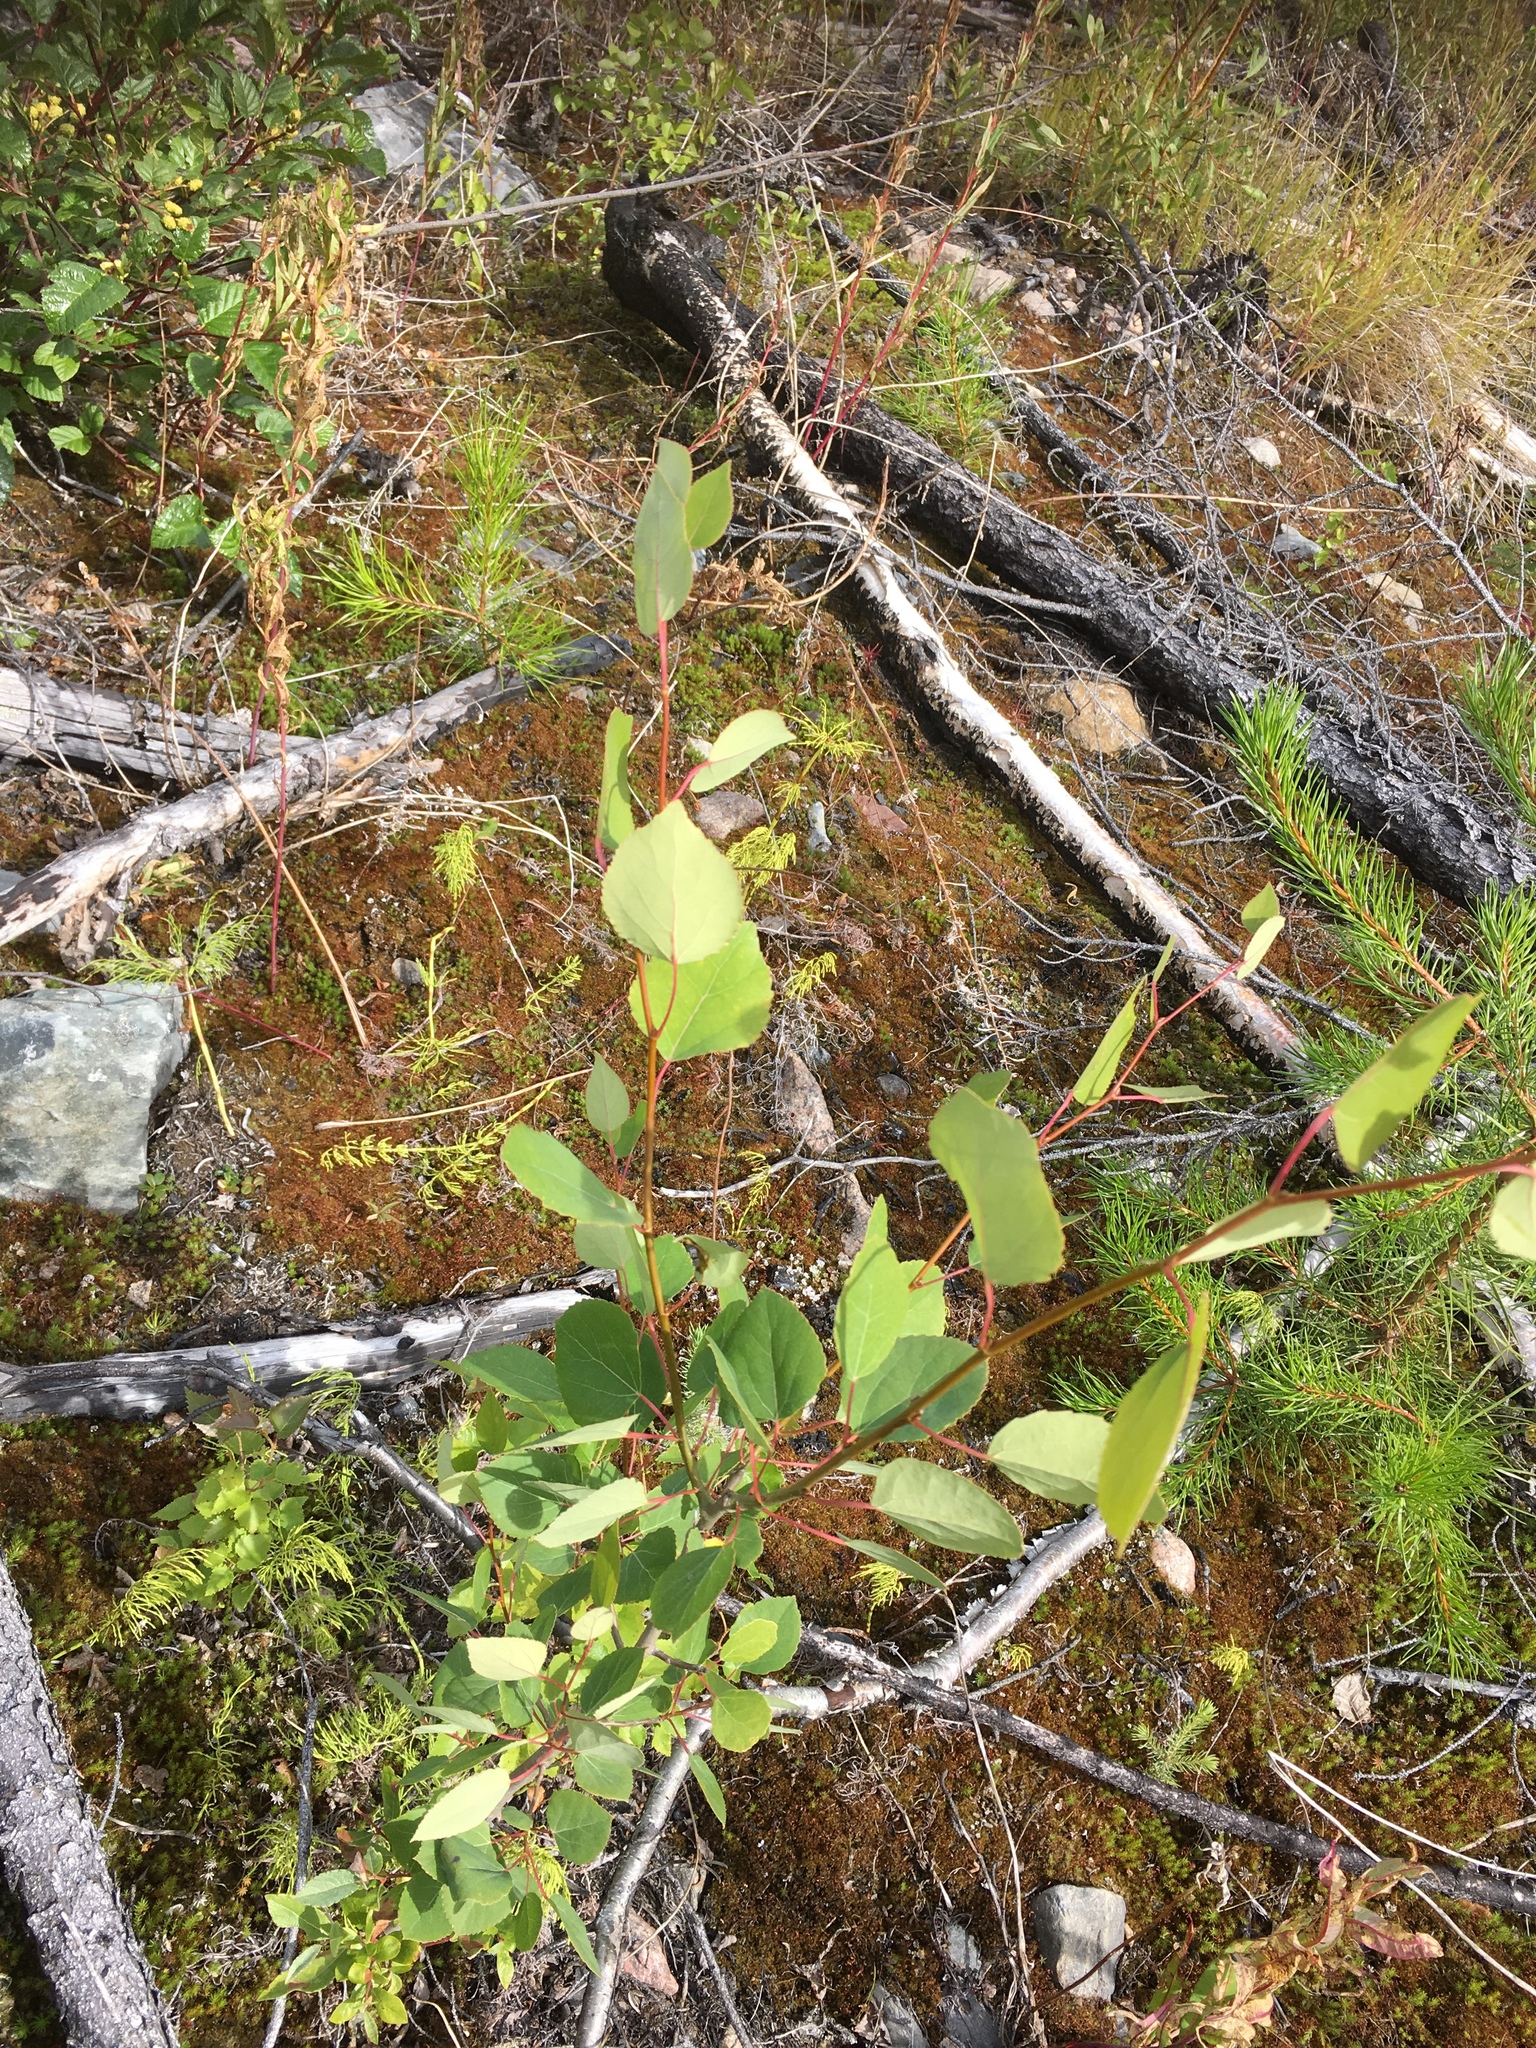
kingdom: Plantae
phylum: Tracheophyta
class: Magnoliopsida
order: Malpighiales
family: Salicaceae
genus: Populus
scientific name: Populus tremuloides
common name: Quaking aspen
